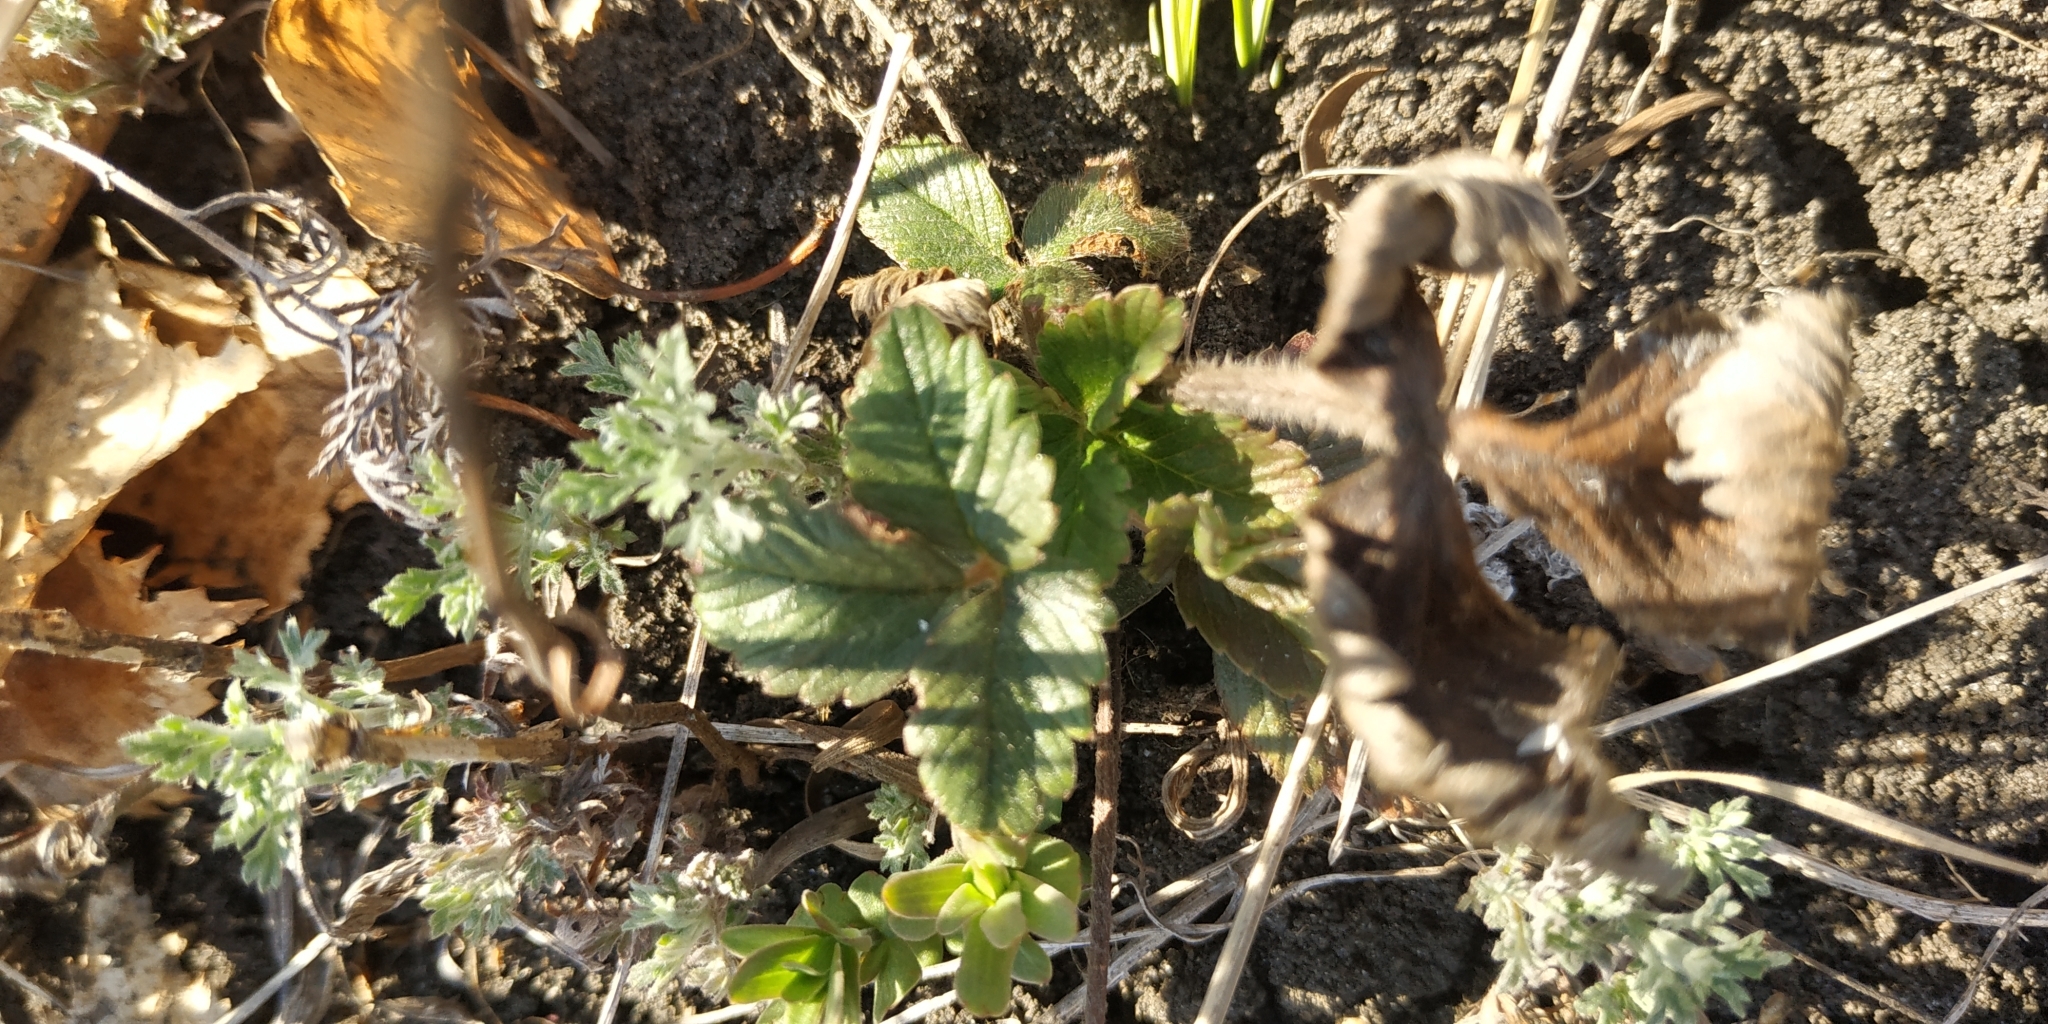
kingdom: Plantae
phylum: Tracheophyta
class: Magnoliopsida
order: Rosales
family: Rosaceae
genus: Fragaria
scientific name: Fragaria viridis
